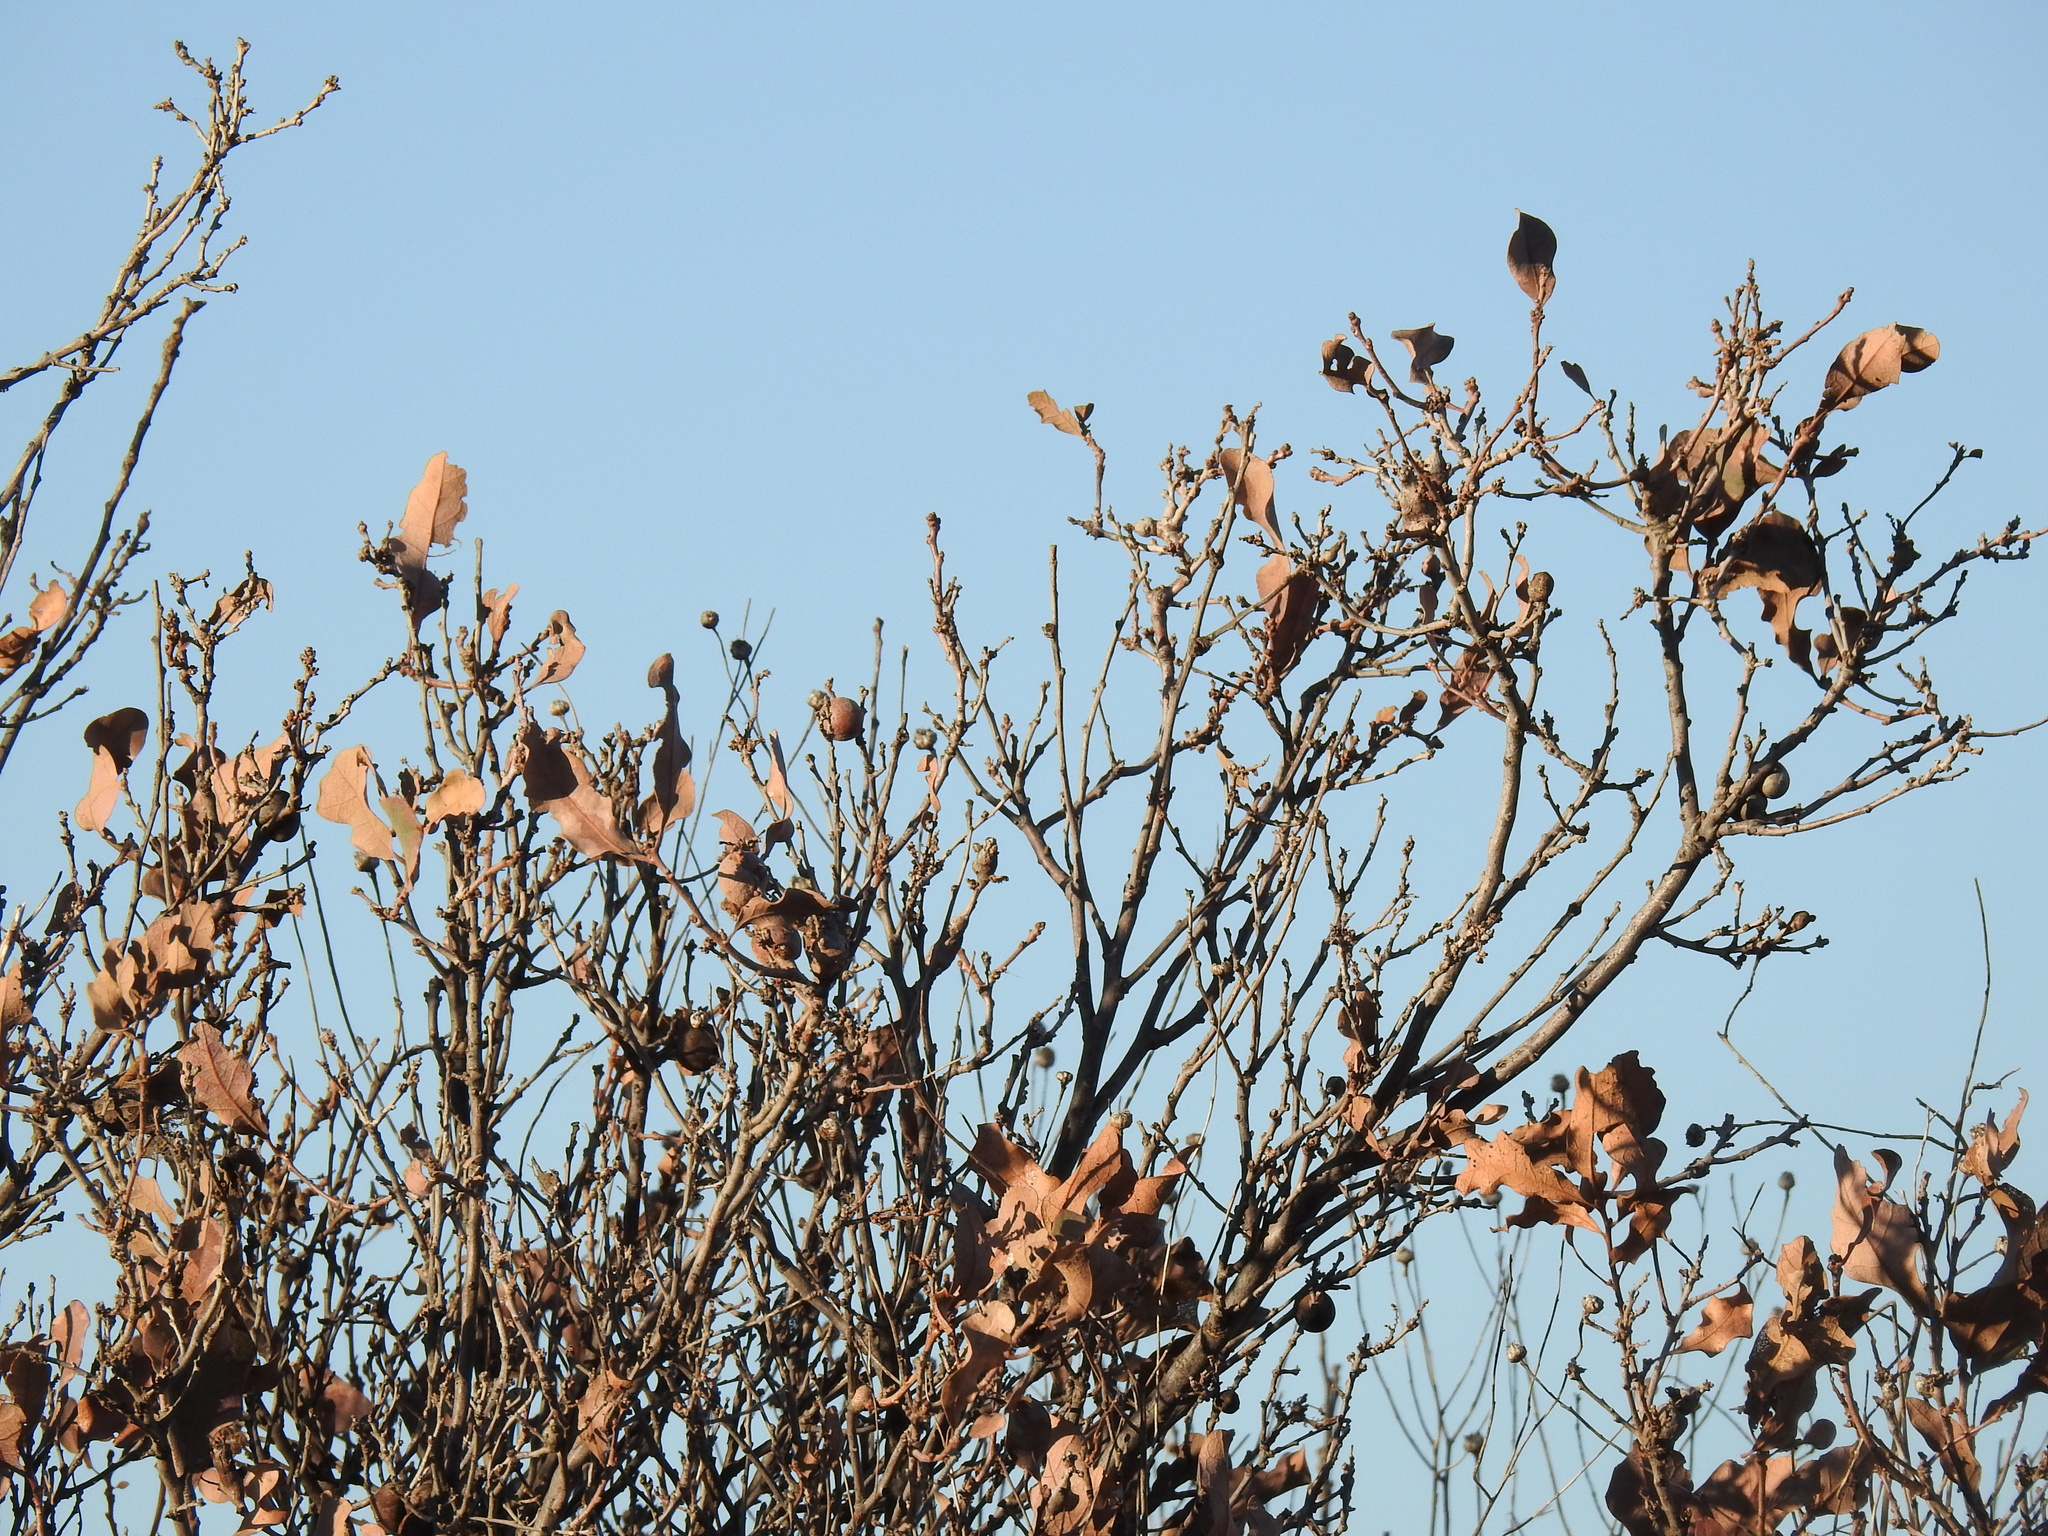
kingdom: Plantae
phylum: Tracheophyta
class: Magnoliopsida
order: Fagales
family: Fagaceae
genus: Quercus
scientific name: Quercus havardii
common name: Shinnery oak
